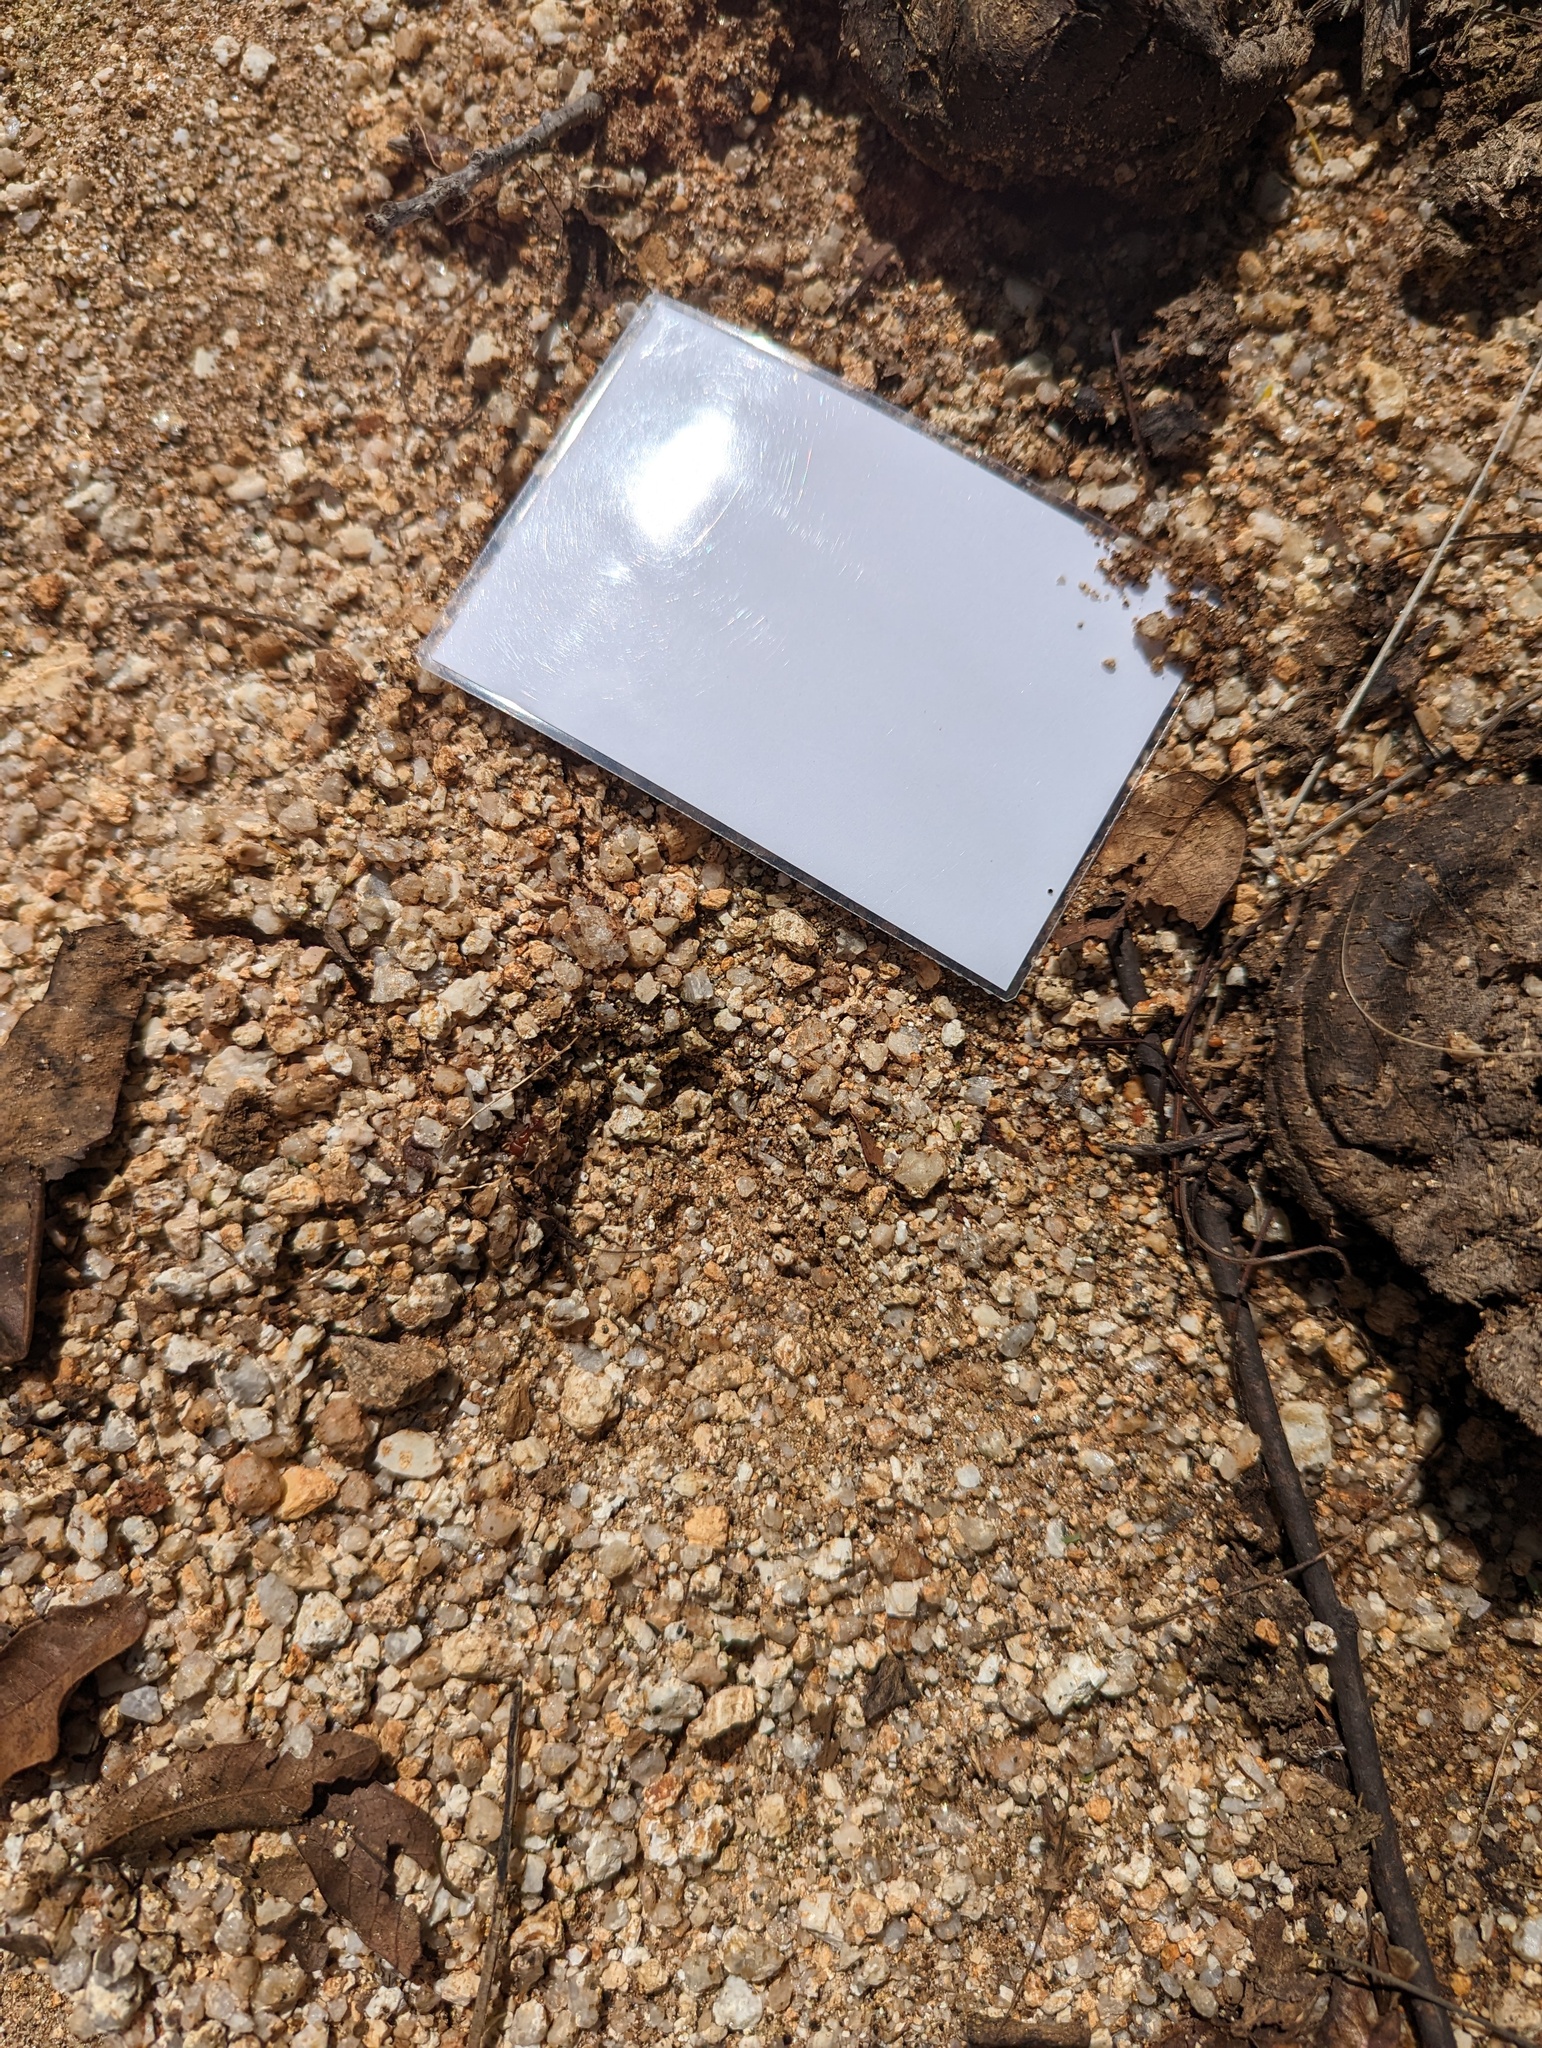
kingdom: Animalia
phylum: Chordata
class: Mammalia
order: Artiodactyla
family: Cervidae
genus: Odocoileus
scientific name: Odocoileus hemionus
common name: Mule deer
